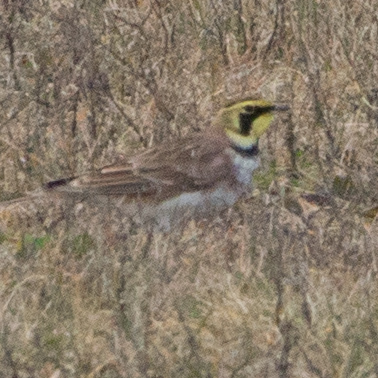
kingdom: Animalia
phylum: Chordata
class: Aves
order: Passeriformes
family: Alaudidae
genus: Eremophila
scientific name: Eremophila alpestris
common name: Horned lark
